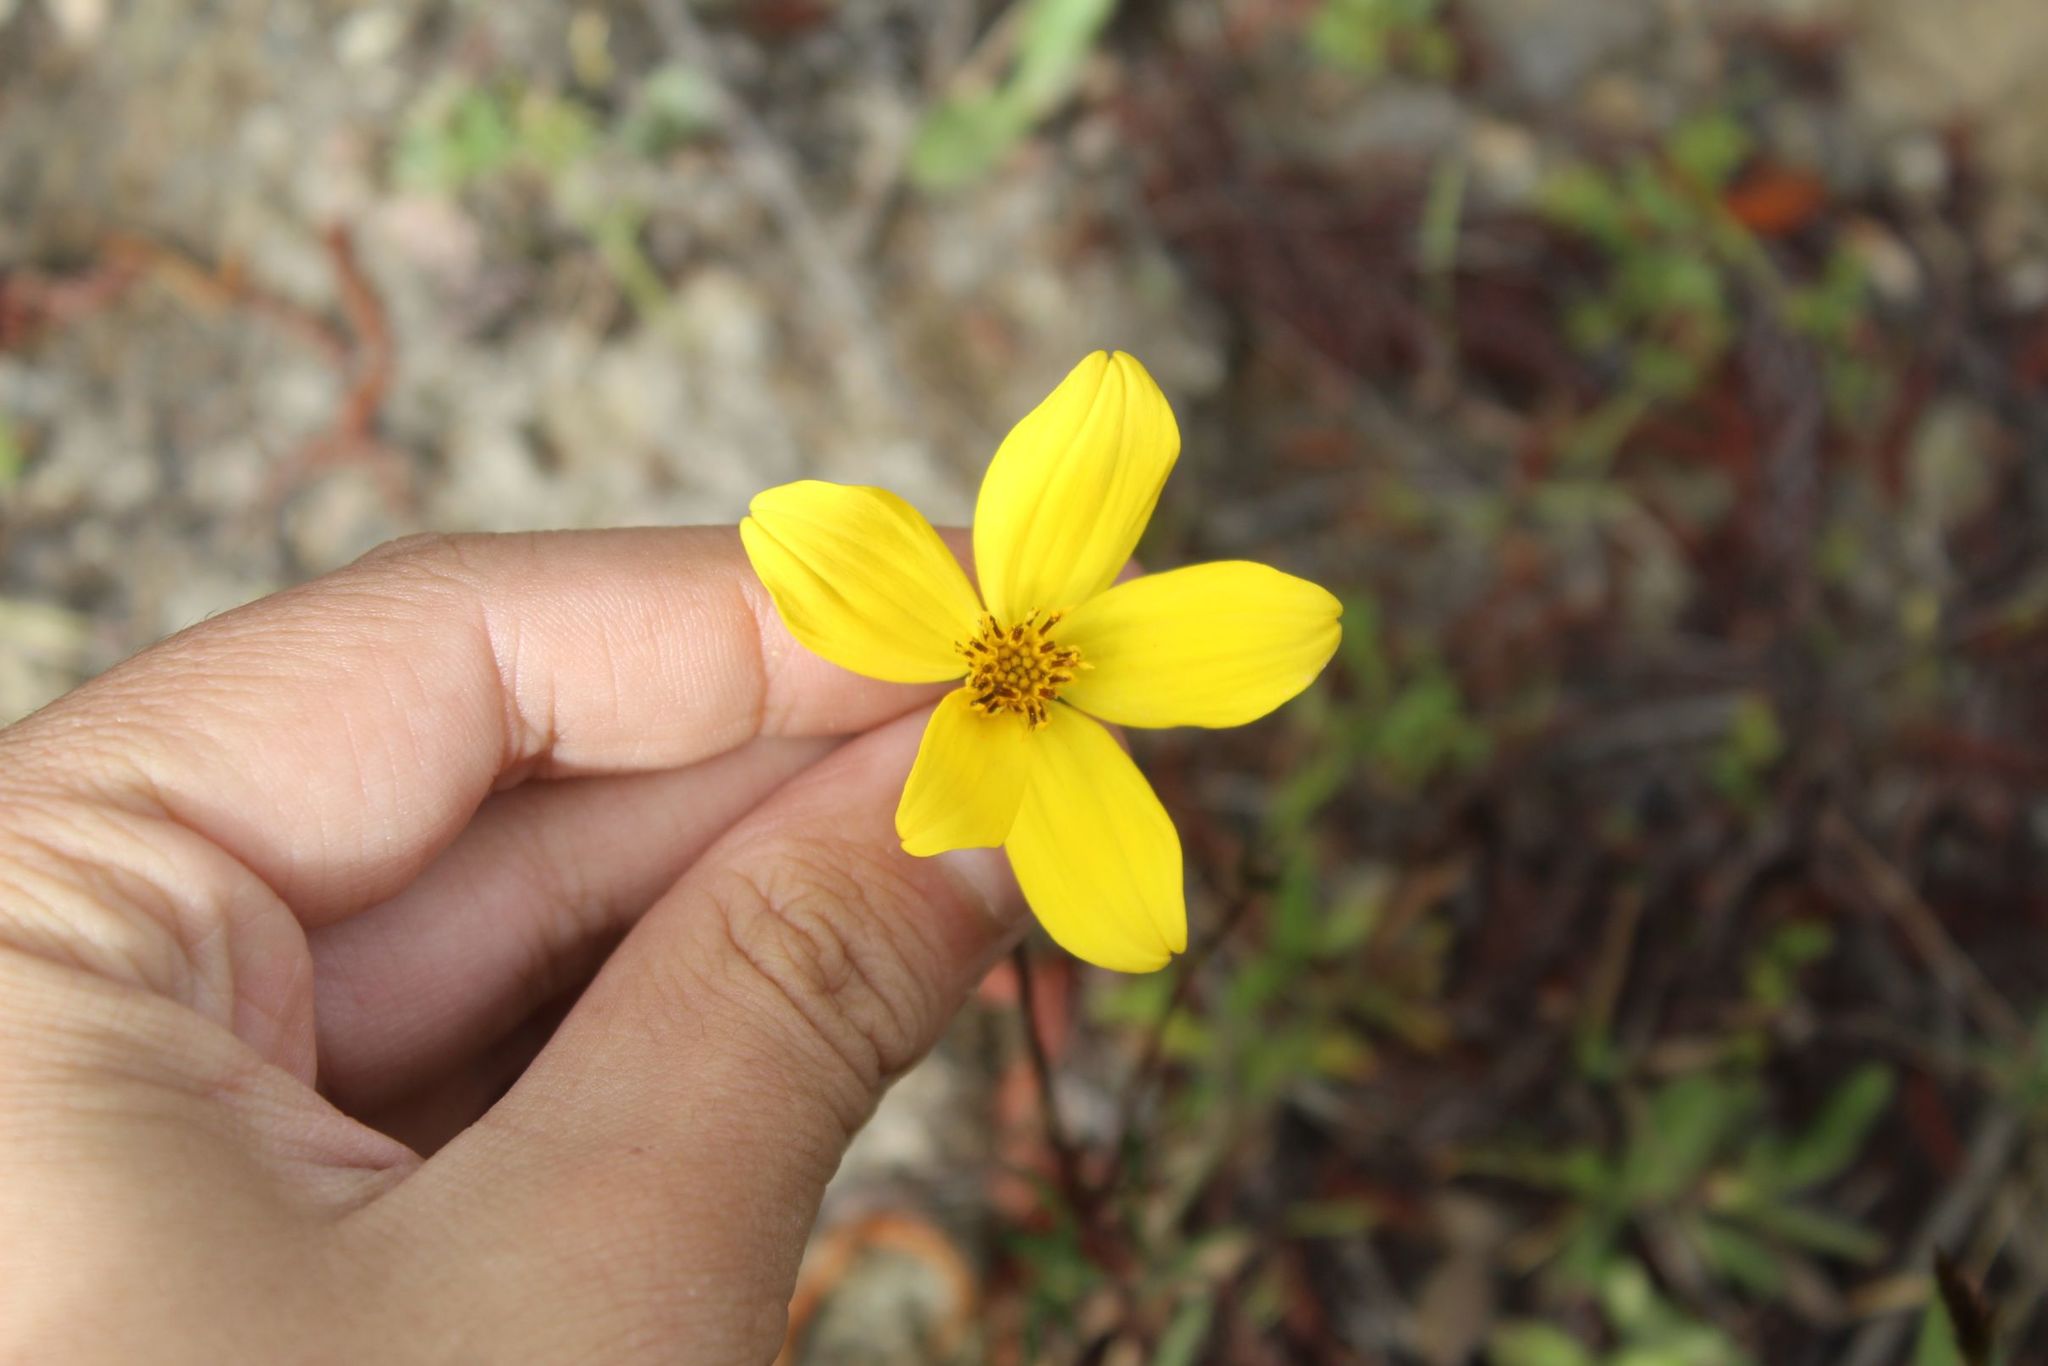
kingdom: Plantae
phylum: Tracheophyta
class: Magnoliopsida
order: Asterales
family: Asteraceae
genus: Bidens
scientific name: Bidens andicola
